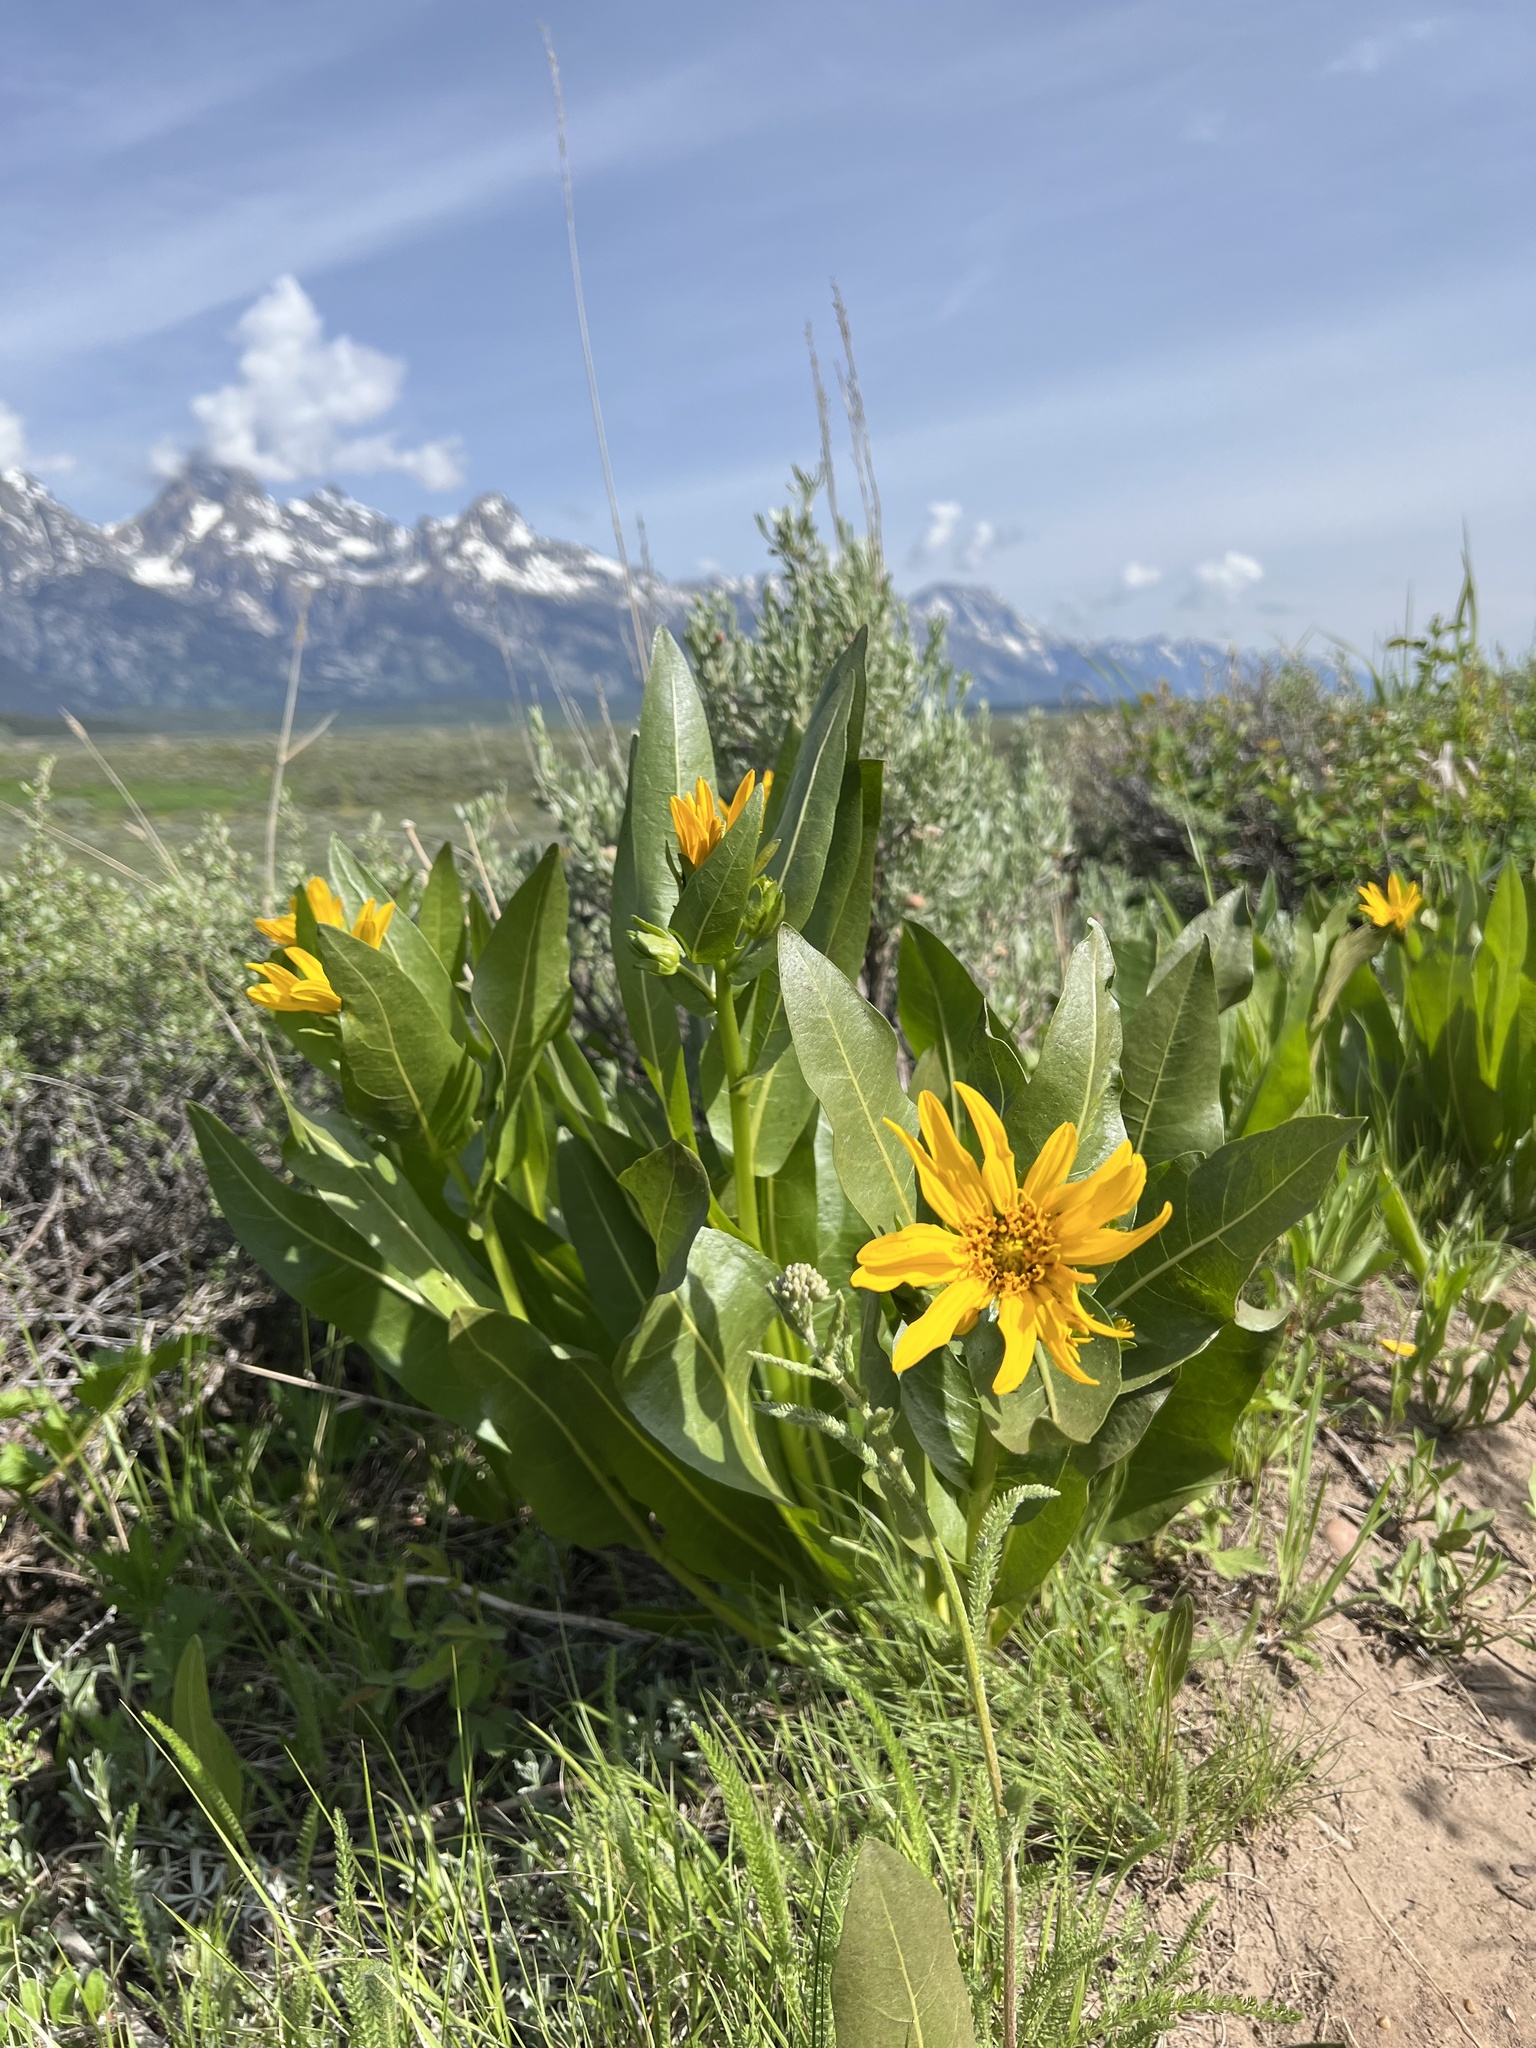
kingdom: Plantae
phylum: Tracheophyta
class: Magnoliopsida
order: Asterales
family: Asteraceae
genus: Wyethia
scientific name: Wyethia amplexicaulis
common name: Northern mule's-ears
